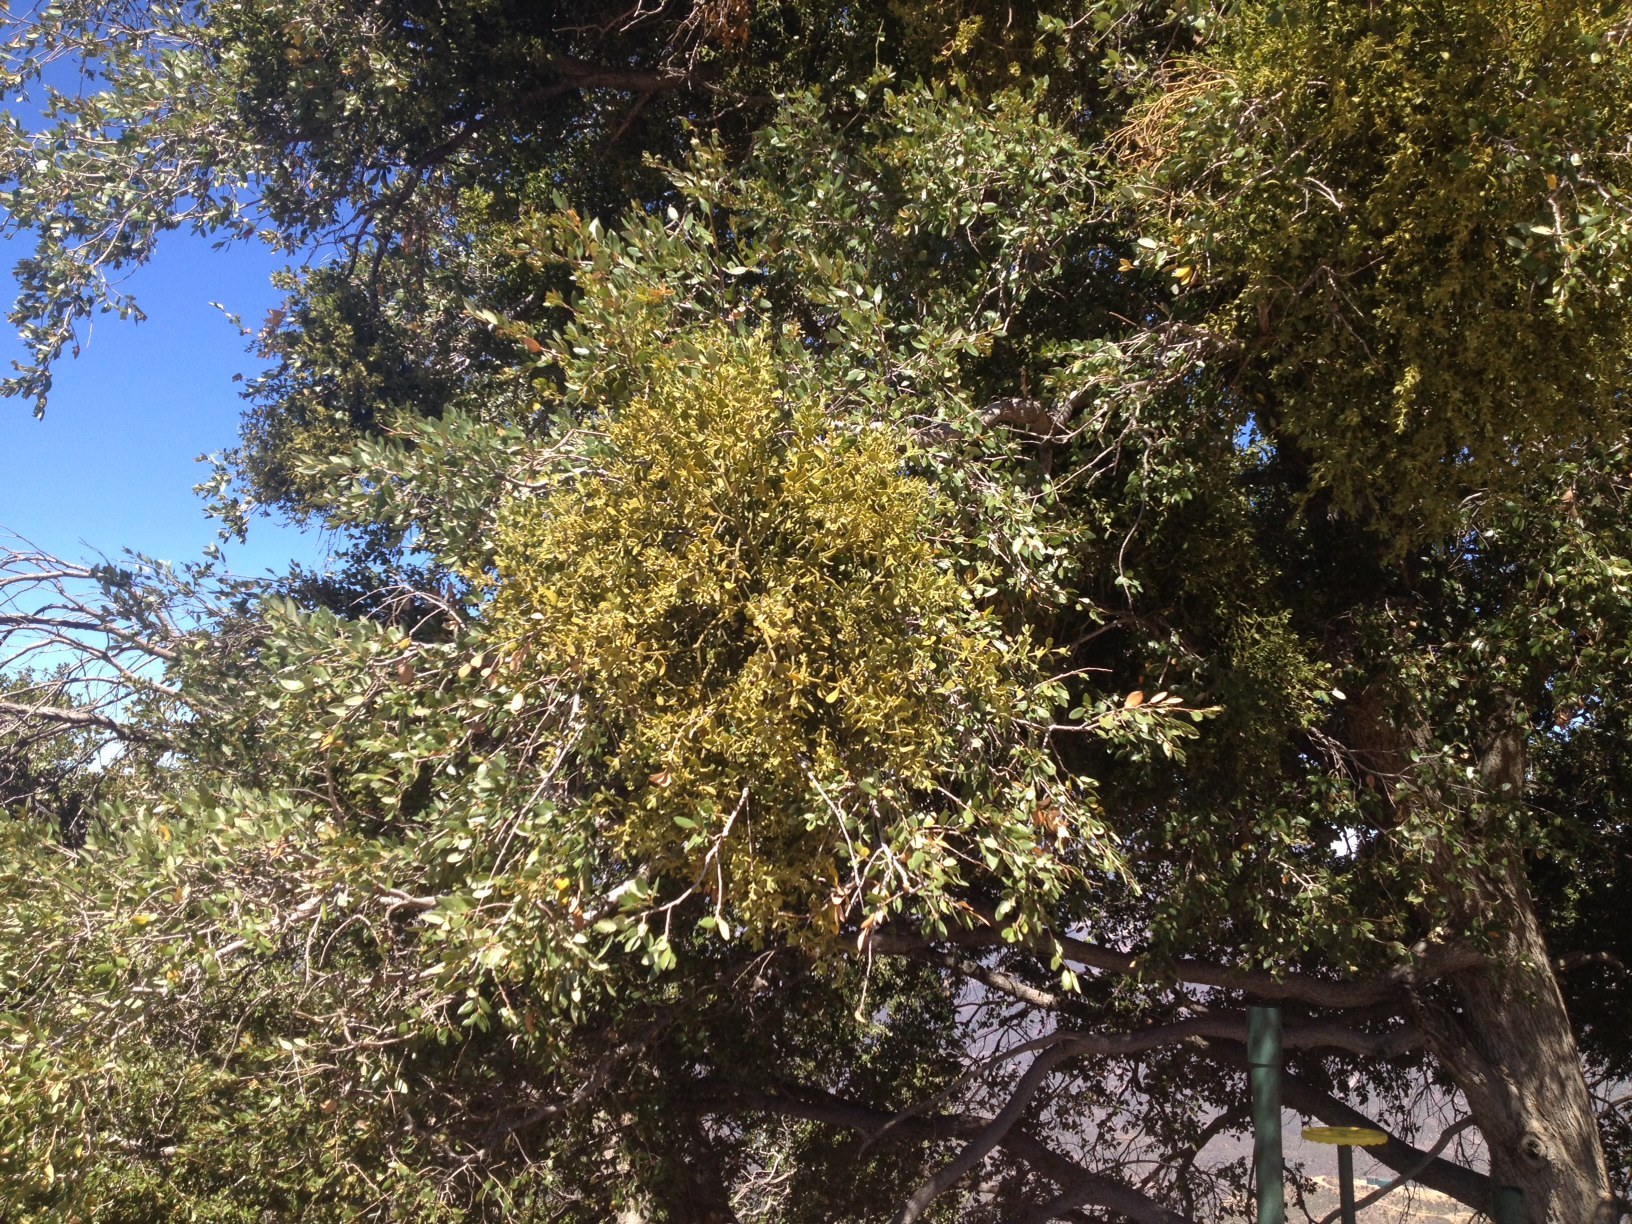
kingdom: Plantae
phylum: Tracheophyta
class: Magnoliopsida
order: Santalales
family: Viscaceae
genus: Phoradendron
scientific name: Phoradendron leucarpum
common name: Pacific mistletoe
